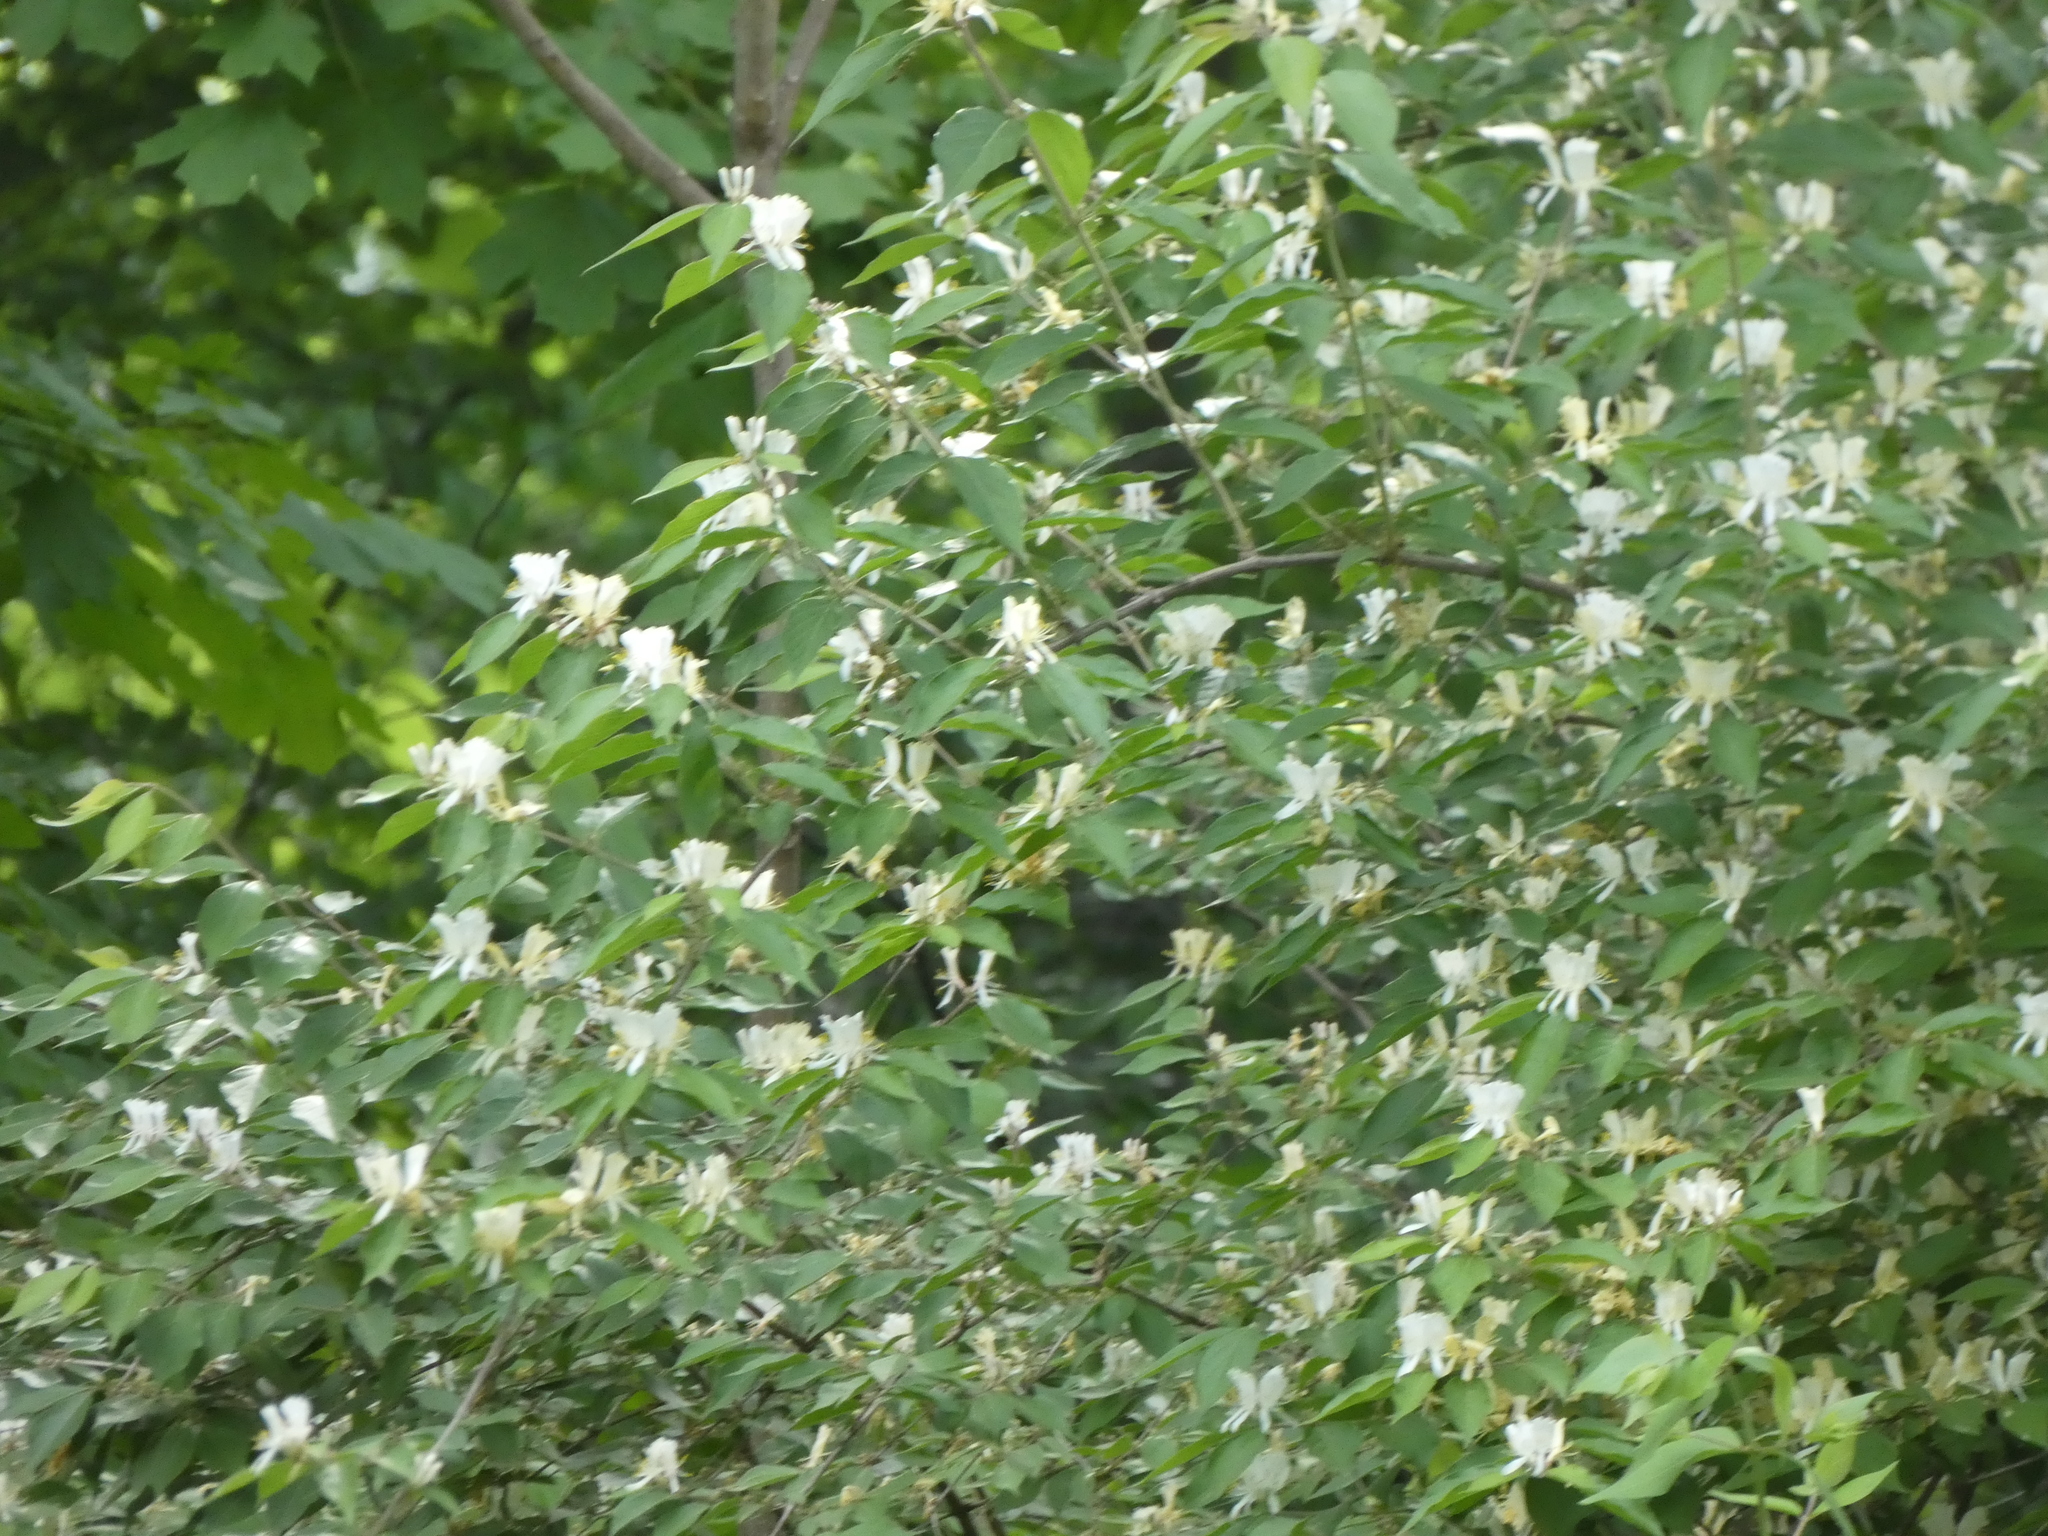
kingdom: Plantae
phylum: Tracheophyta
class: Magnoliopsida
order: Dipsacales
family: Caprifoliaceae
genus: Lonicera
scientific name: Lonicera maackii
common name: Amur honeysuckle
